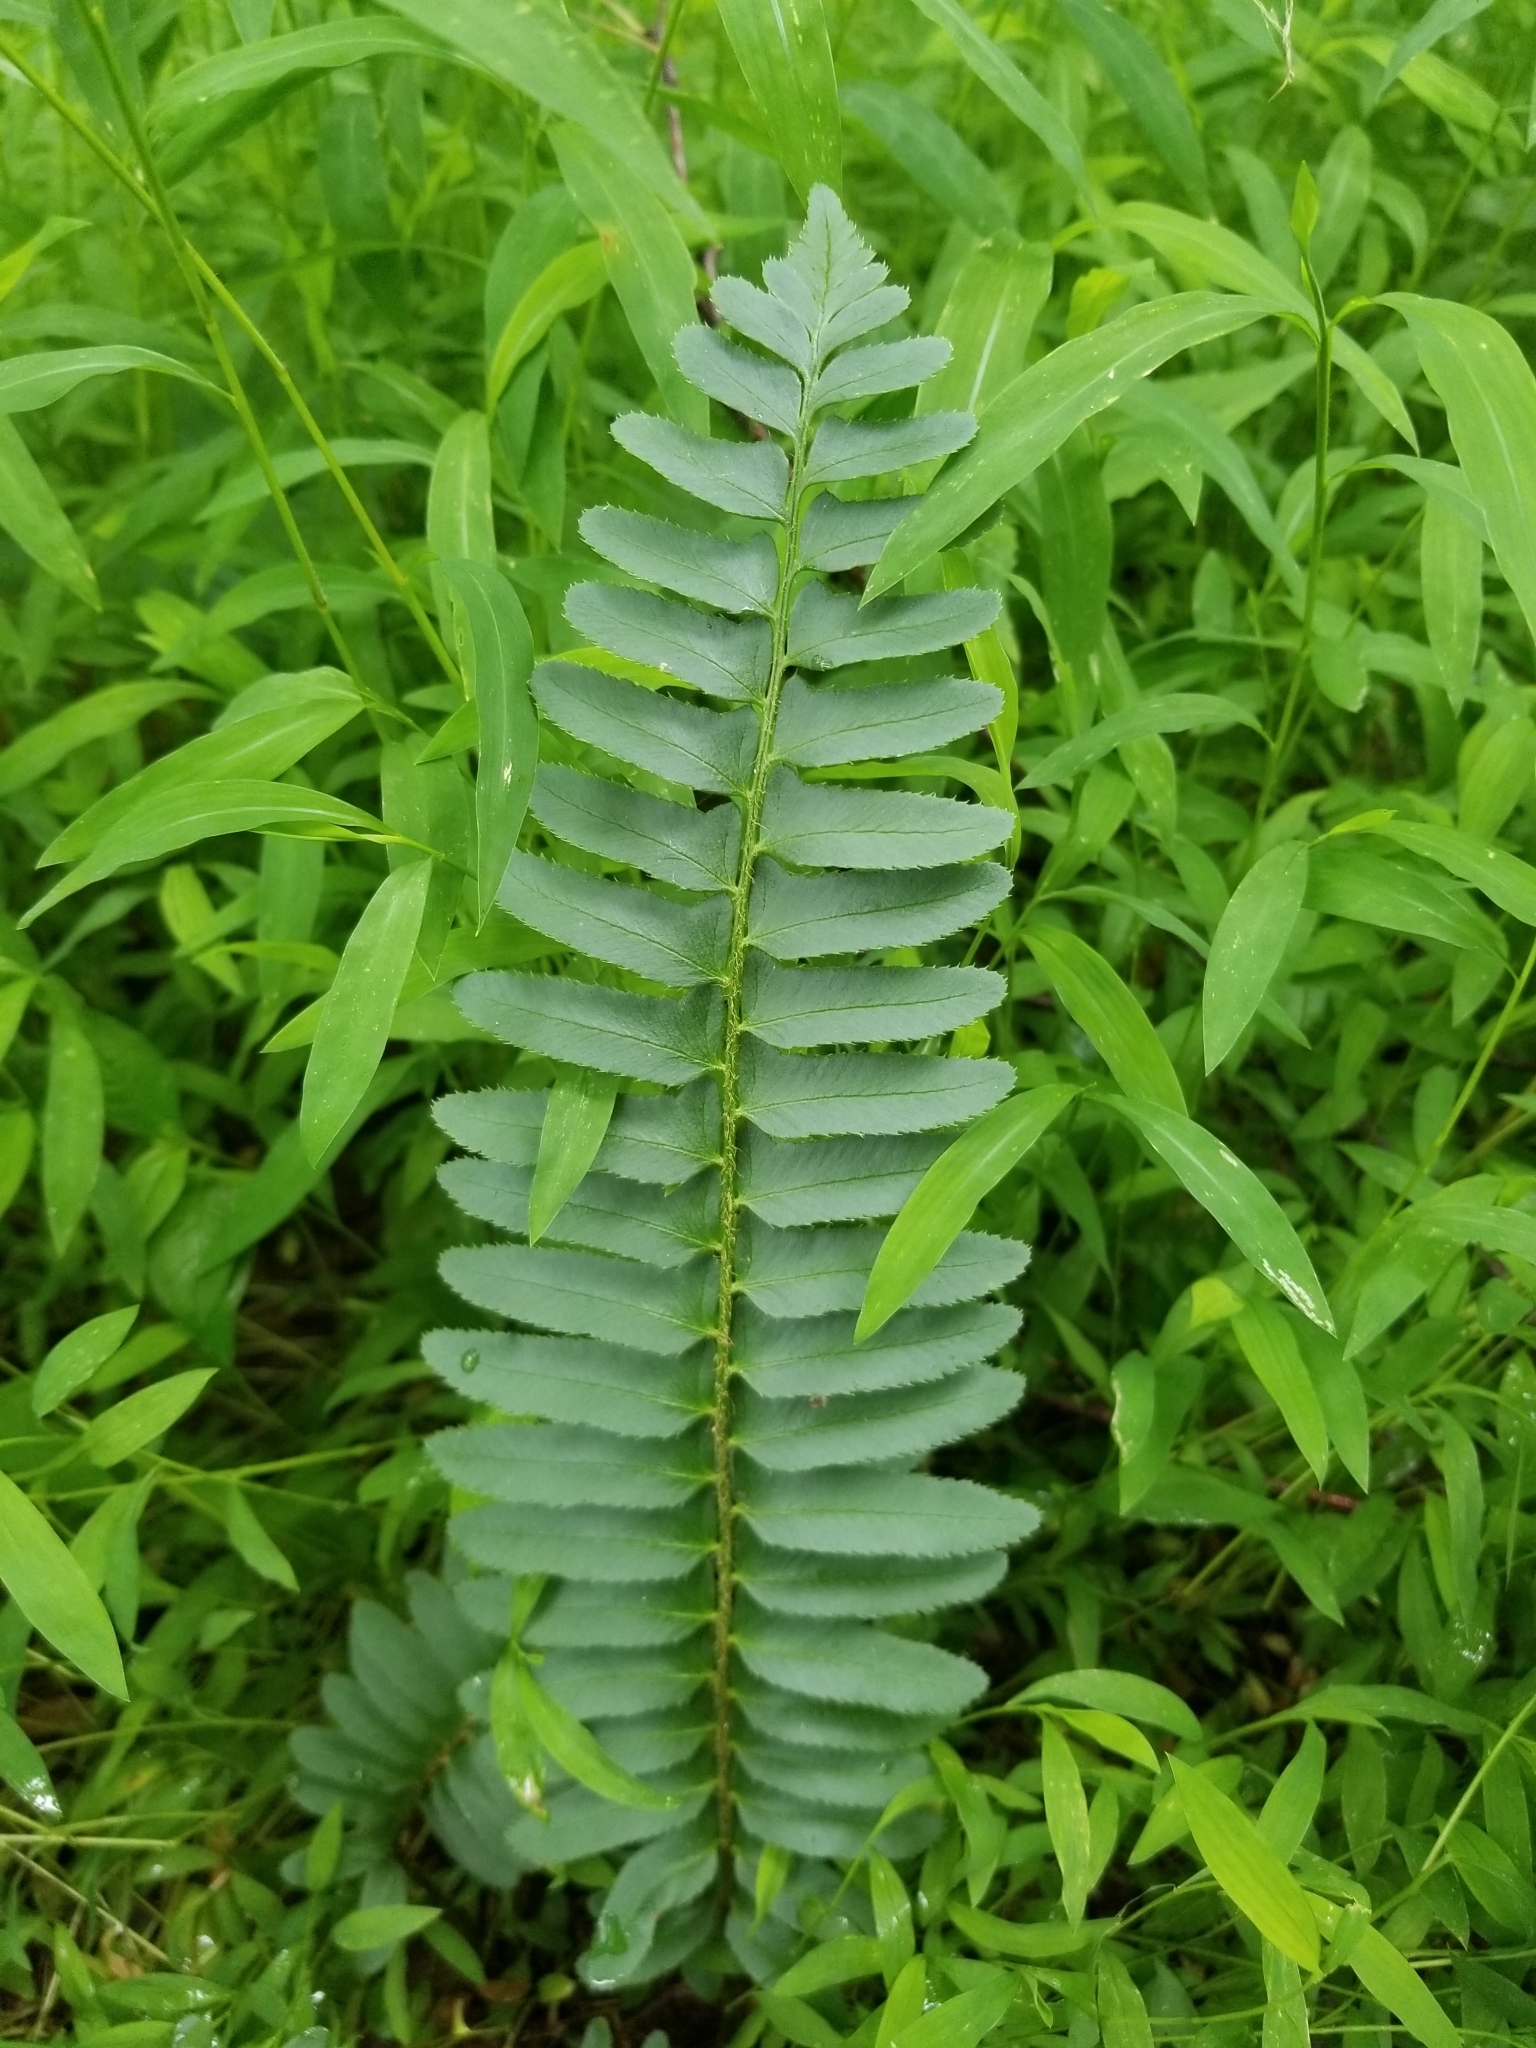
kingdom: Plantae
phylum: Tracheophyta
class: Polypodiopsida
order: Polypodiales
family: Dryopteridaceae
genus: Polystichum
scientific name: Polystichum acrostichoides
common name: Christmas fern
